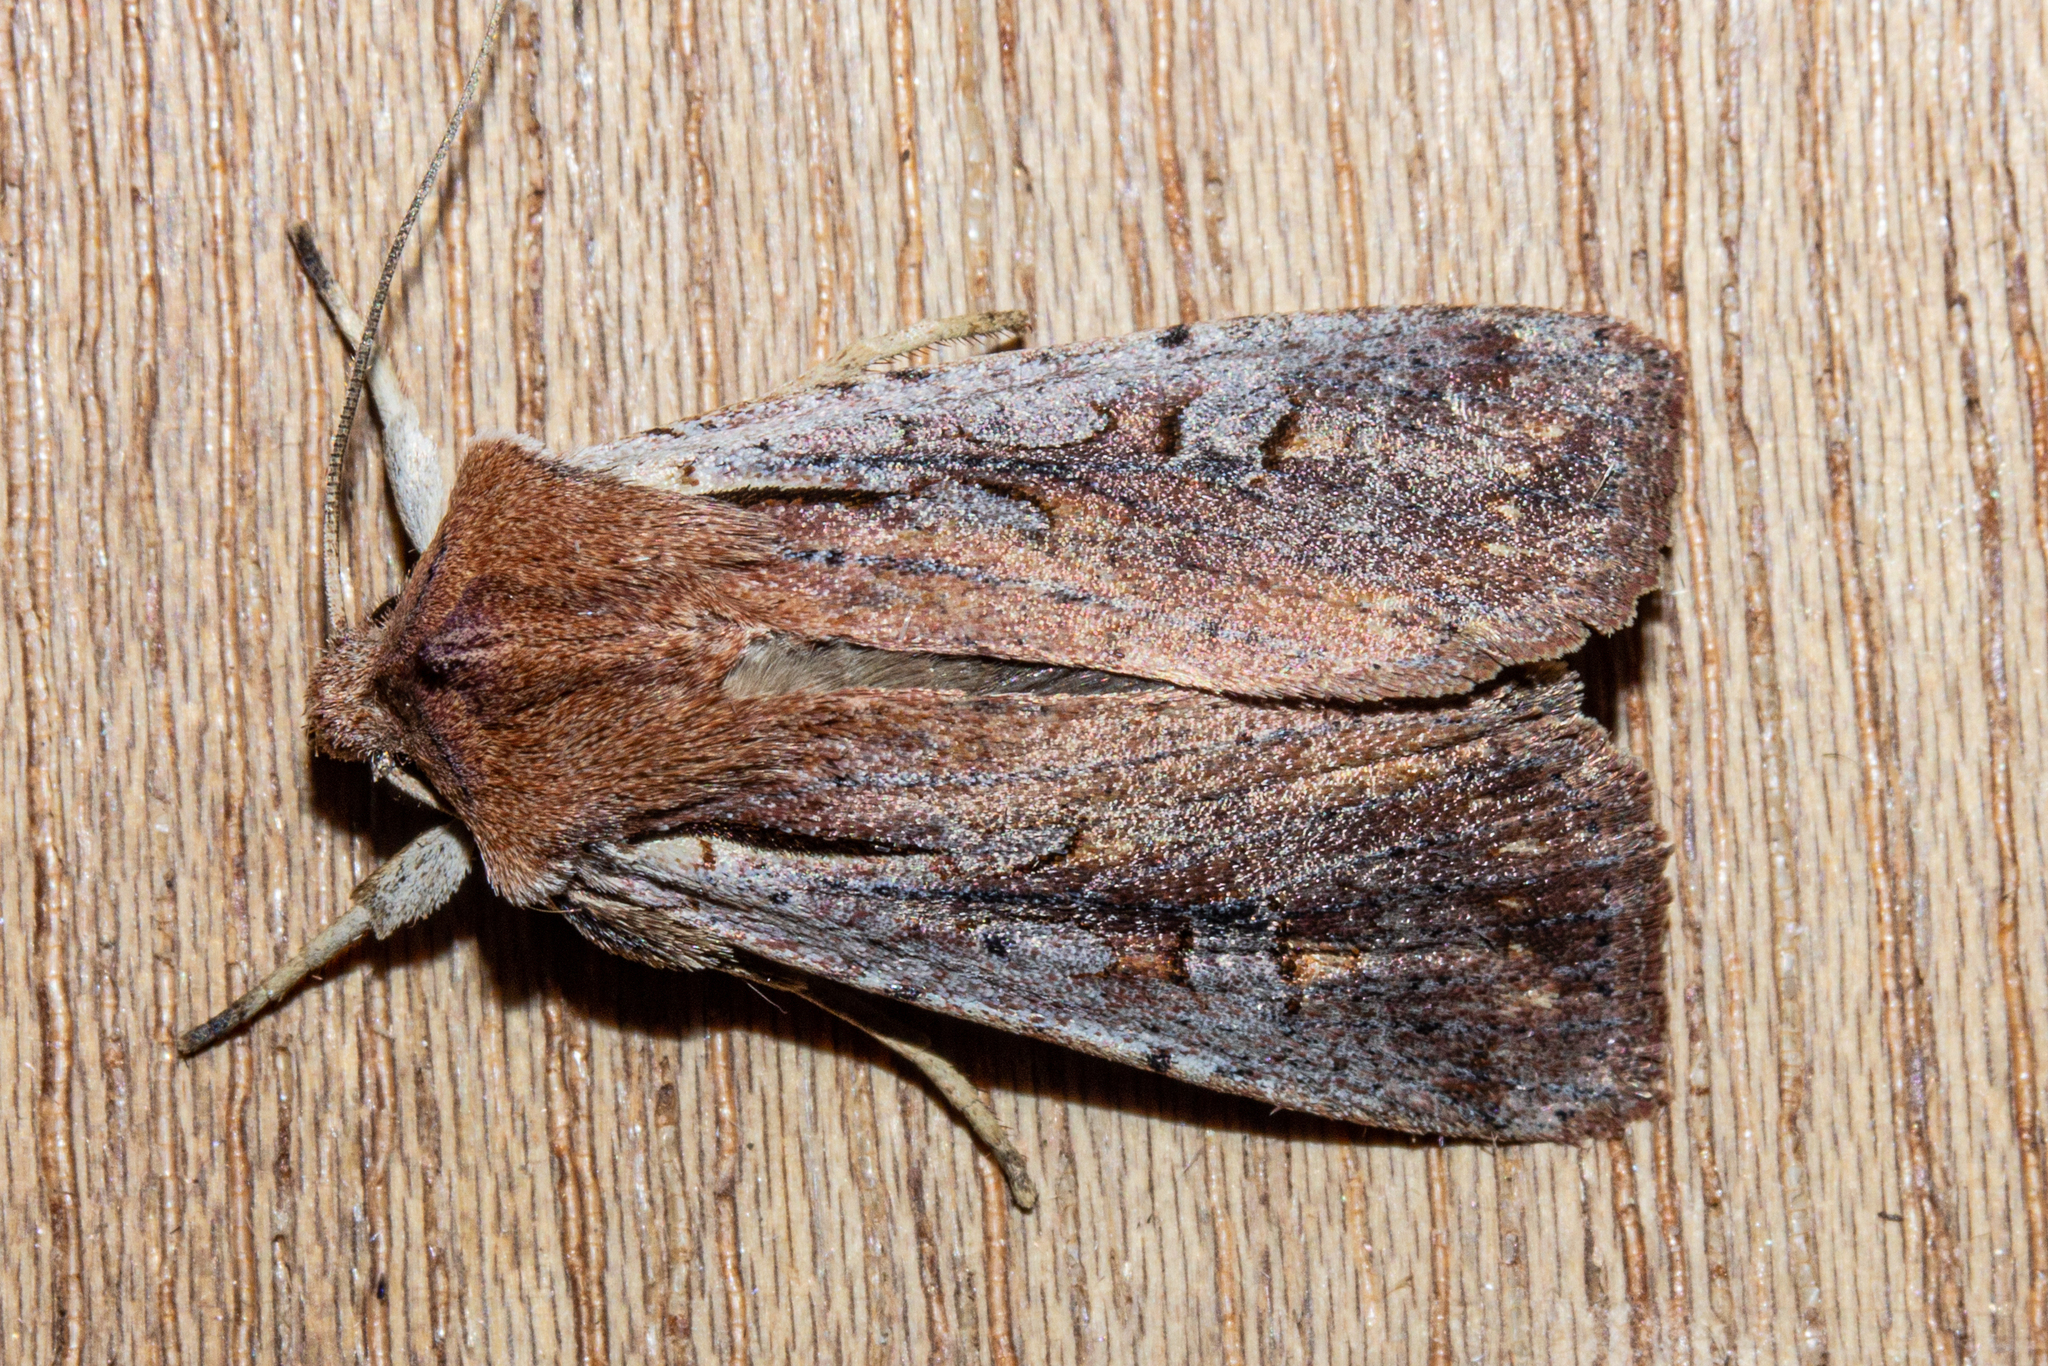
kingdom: Animalia
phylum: Arthropoda
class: Insecta
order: Lepidoptera
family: Noctuidae
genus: Ichneutica
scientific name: Ichneutica atristriga
